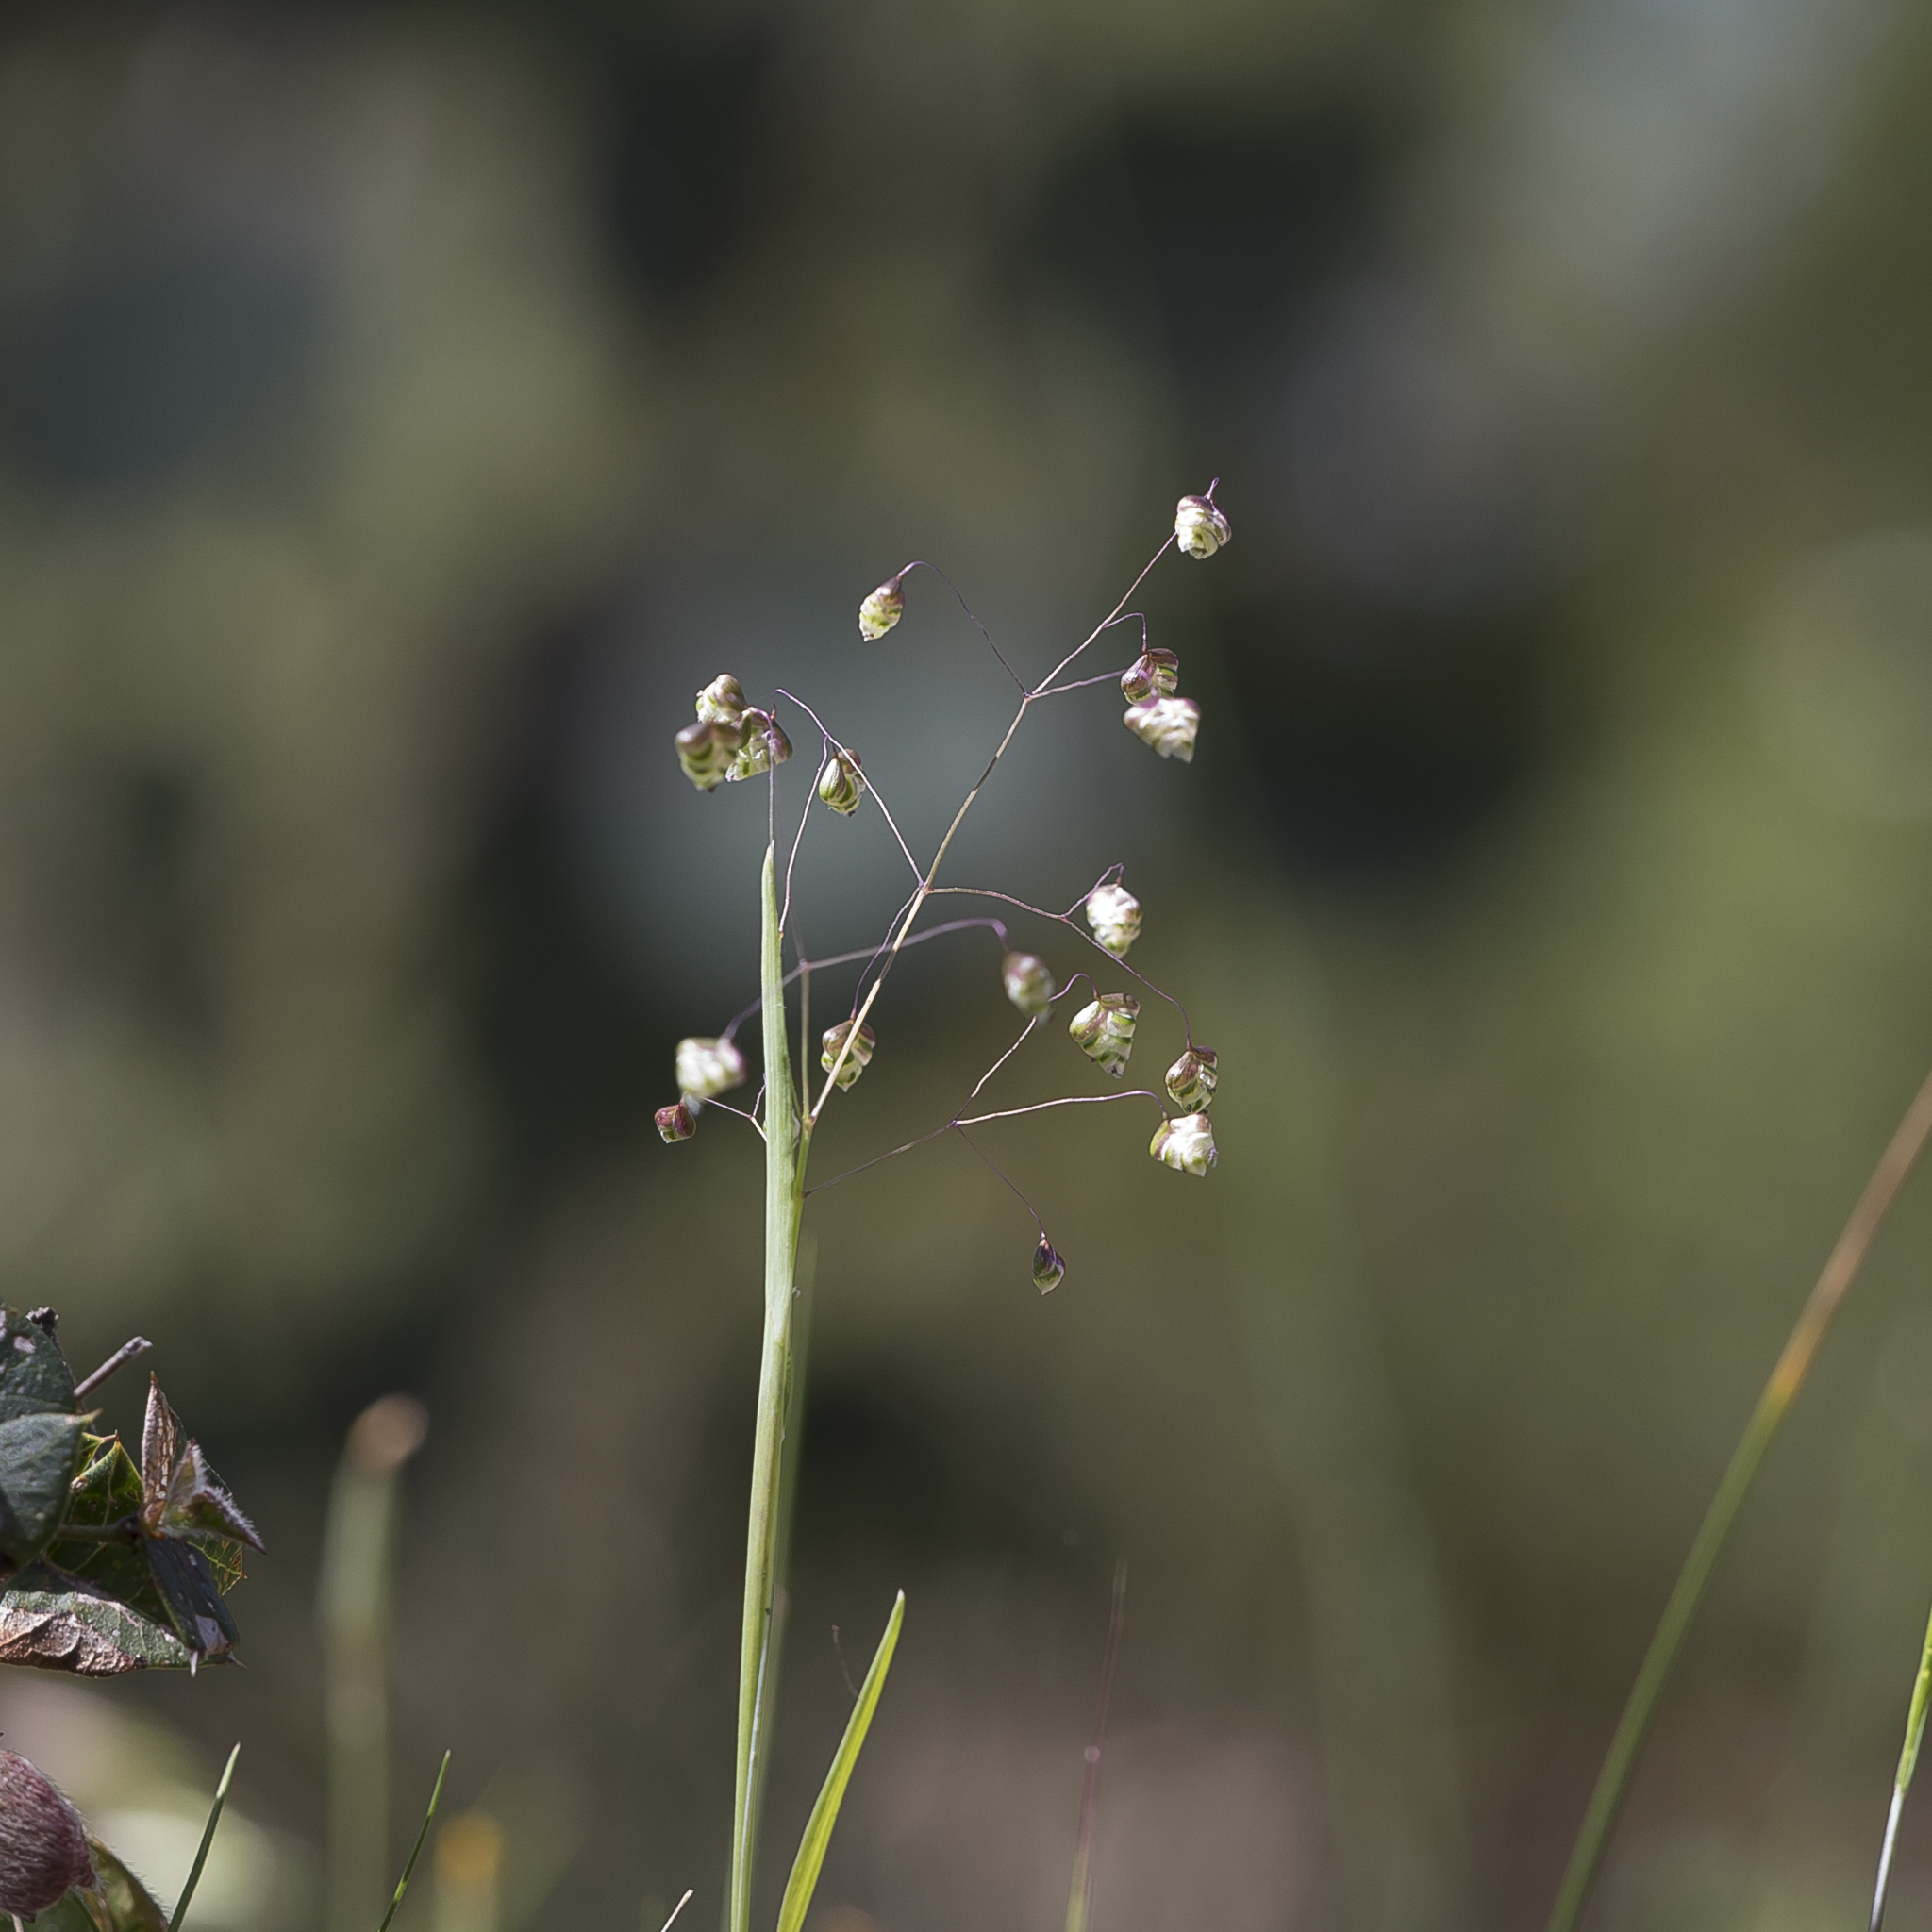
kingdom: Plantae
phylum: Tracheophyta
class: Liliopsida
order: Poales
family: Poaceae
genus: Briza
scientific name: Briza minor
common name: Lesser quaking-grass
